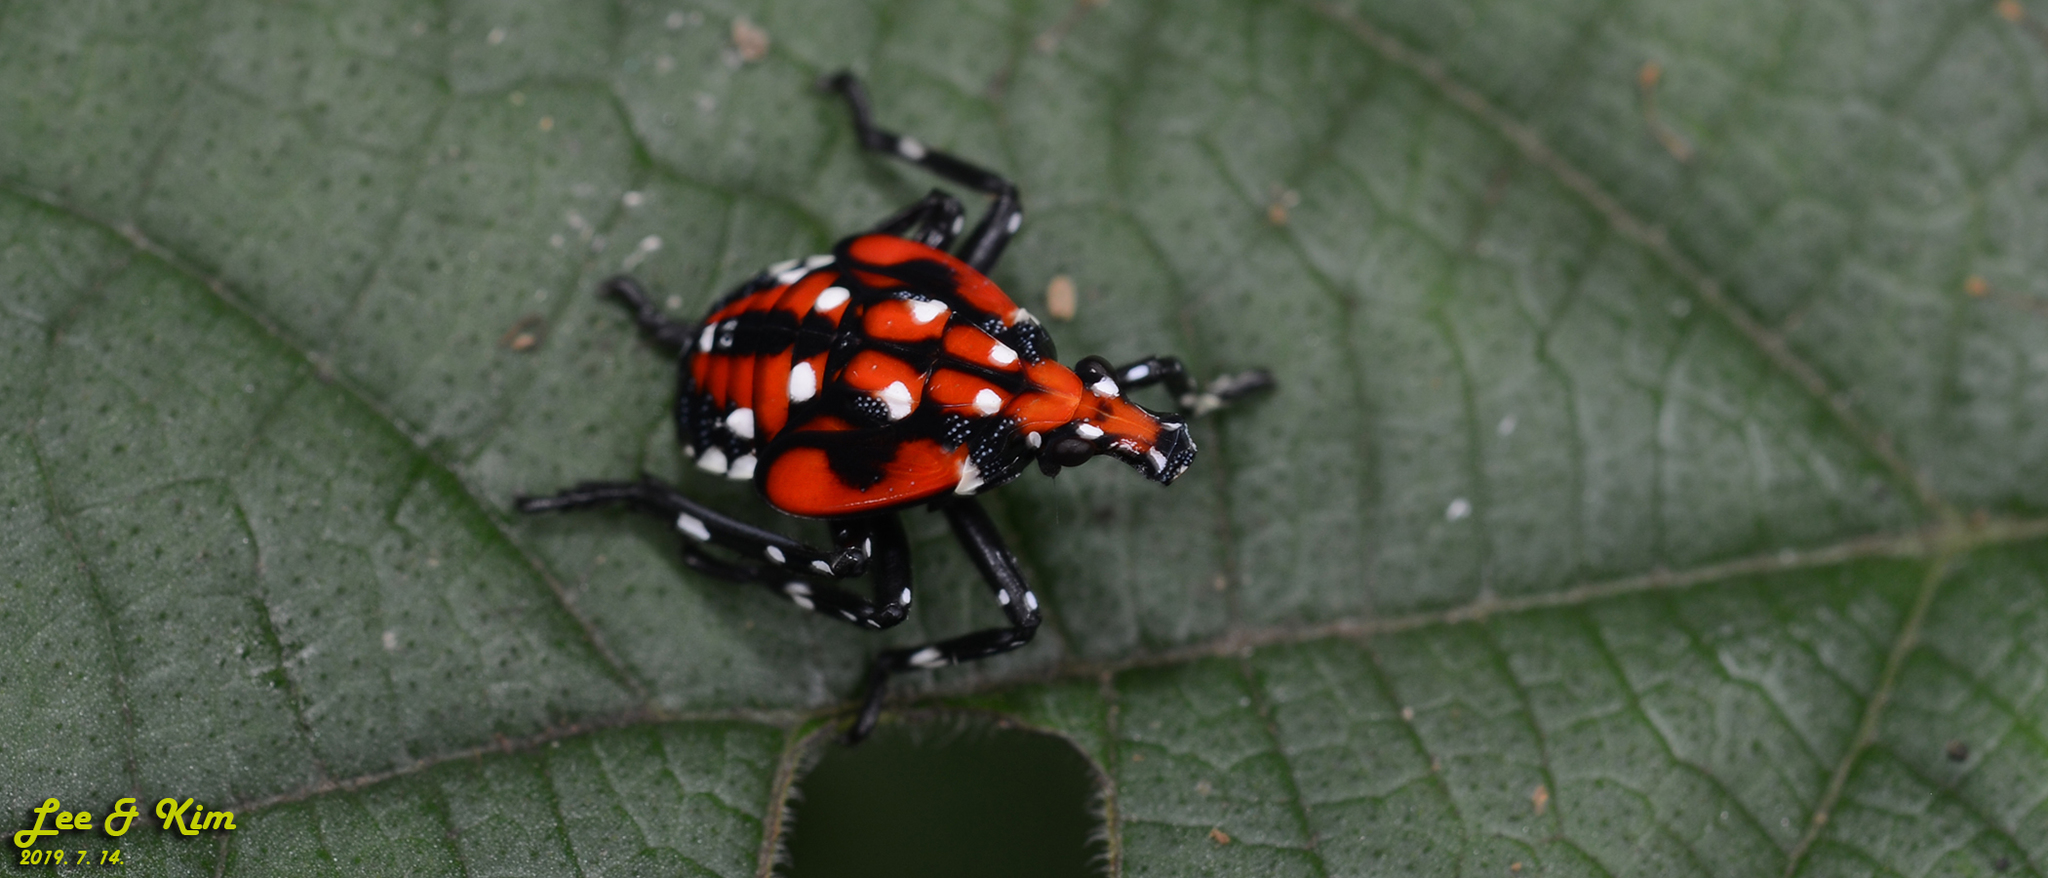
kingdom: Animalia
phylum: Arthropoda
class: Insecta
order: Hemiptera
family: Fulgoridae
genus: Lycorma
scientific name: Lycorma delicatula
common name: Spotted lanternfly
